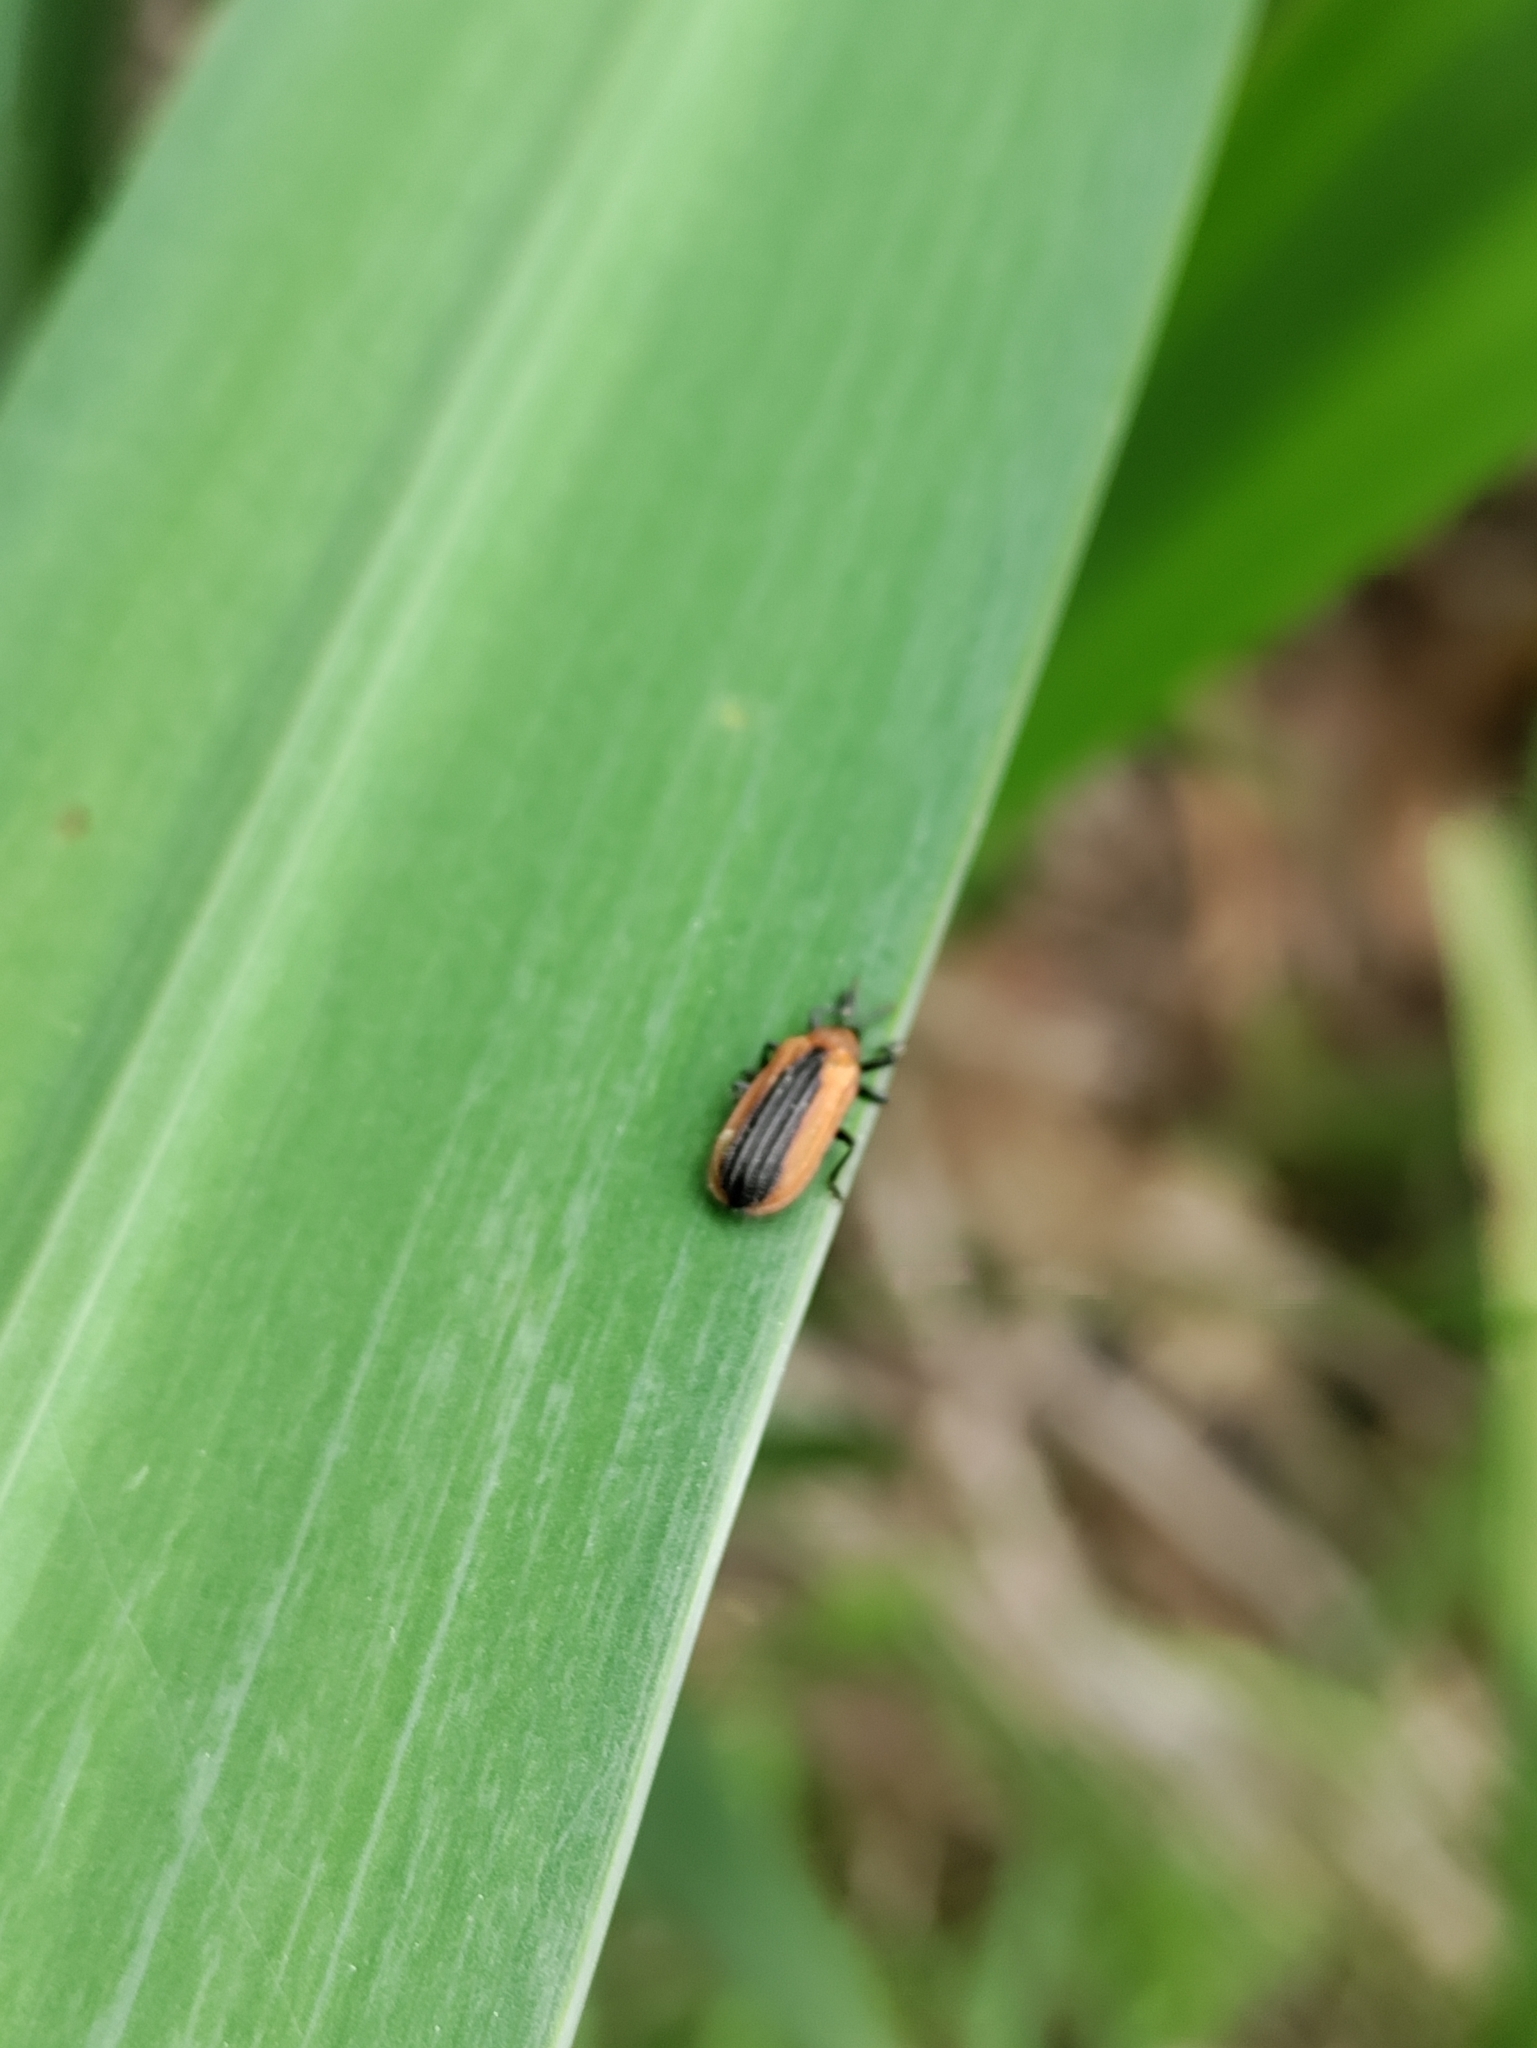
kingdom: Animalia
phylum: Arthropoda
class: Insecta
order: Coleoptera
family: Chrysomelidae
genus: Odontota
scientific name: Odontota dorsalis
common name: Locust leaf-miner beetle
